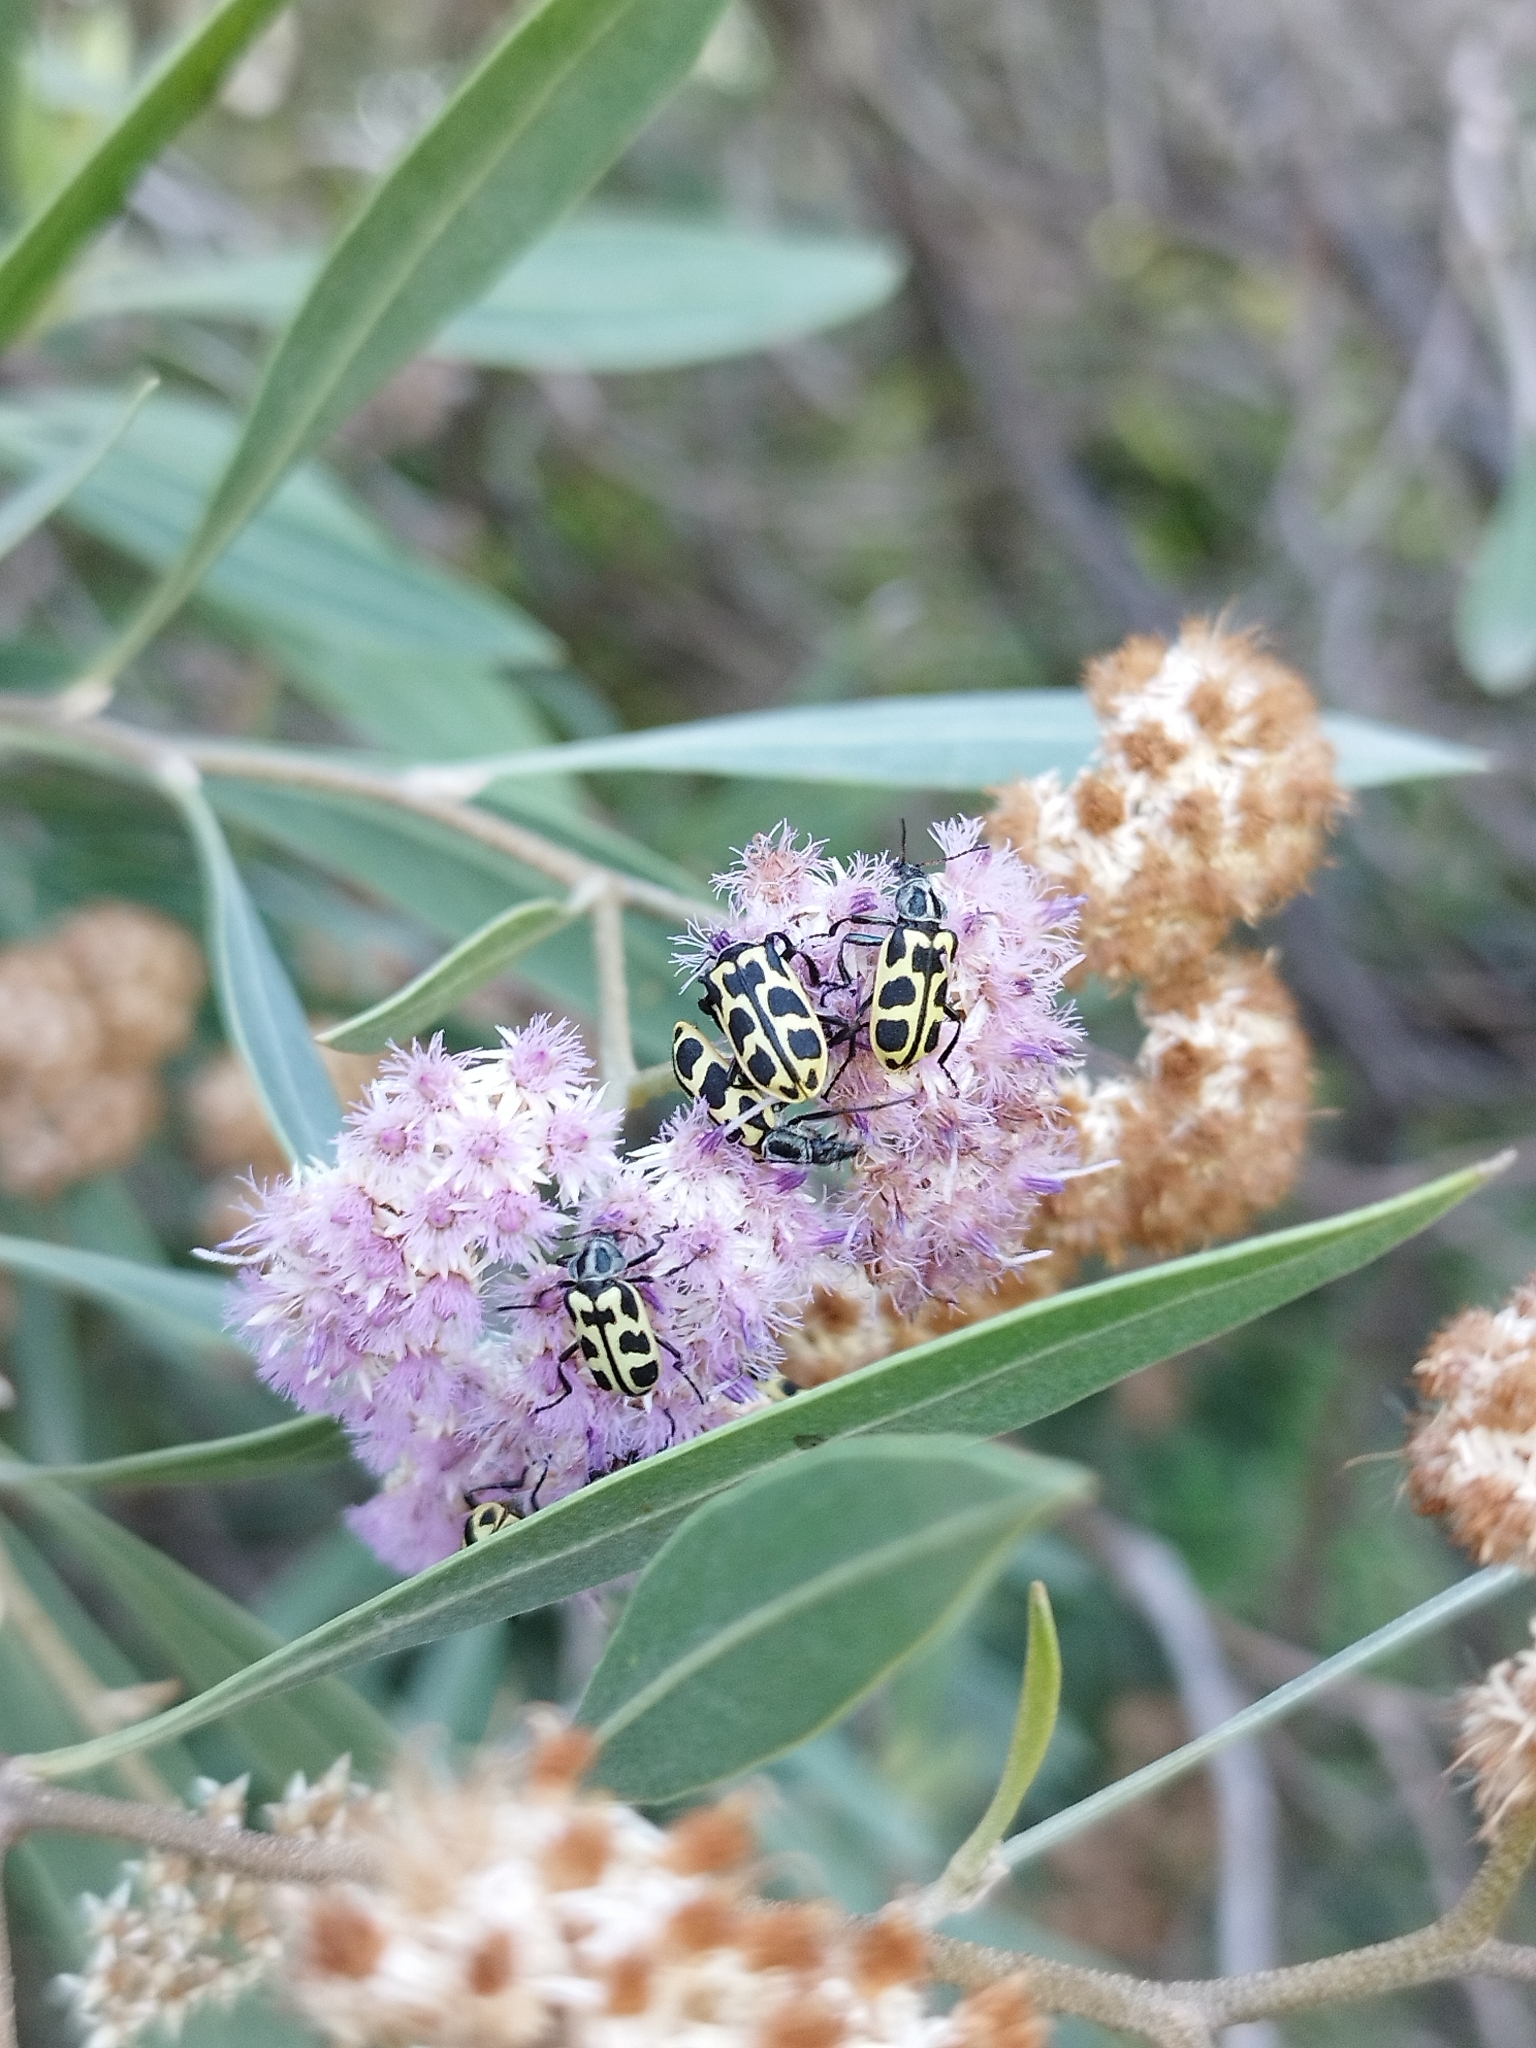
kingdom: Animalia
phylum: Arthropoda
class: Insecta
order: Coleoptera
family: Melyridae
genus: Astylus
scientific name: Astylus atromaculatus
